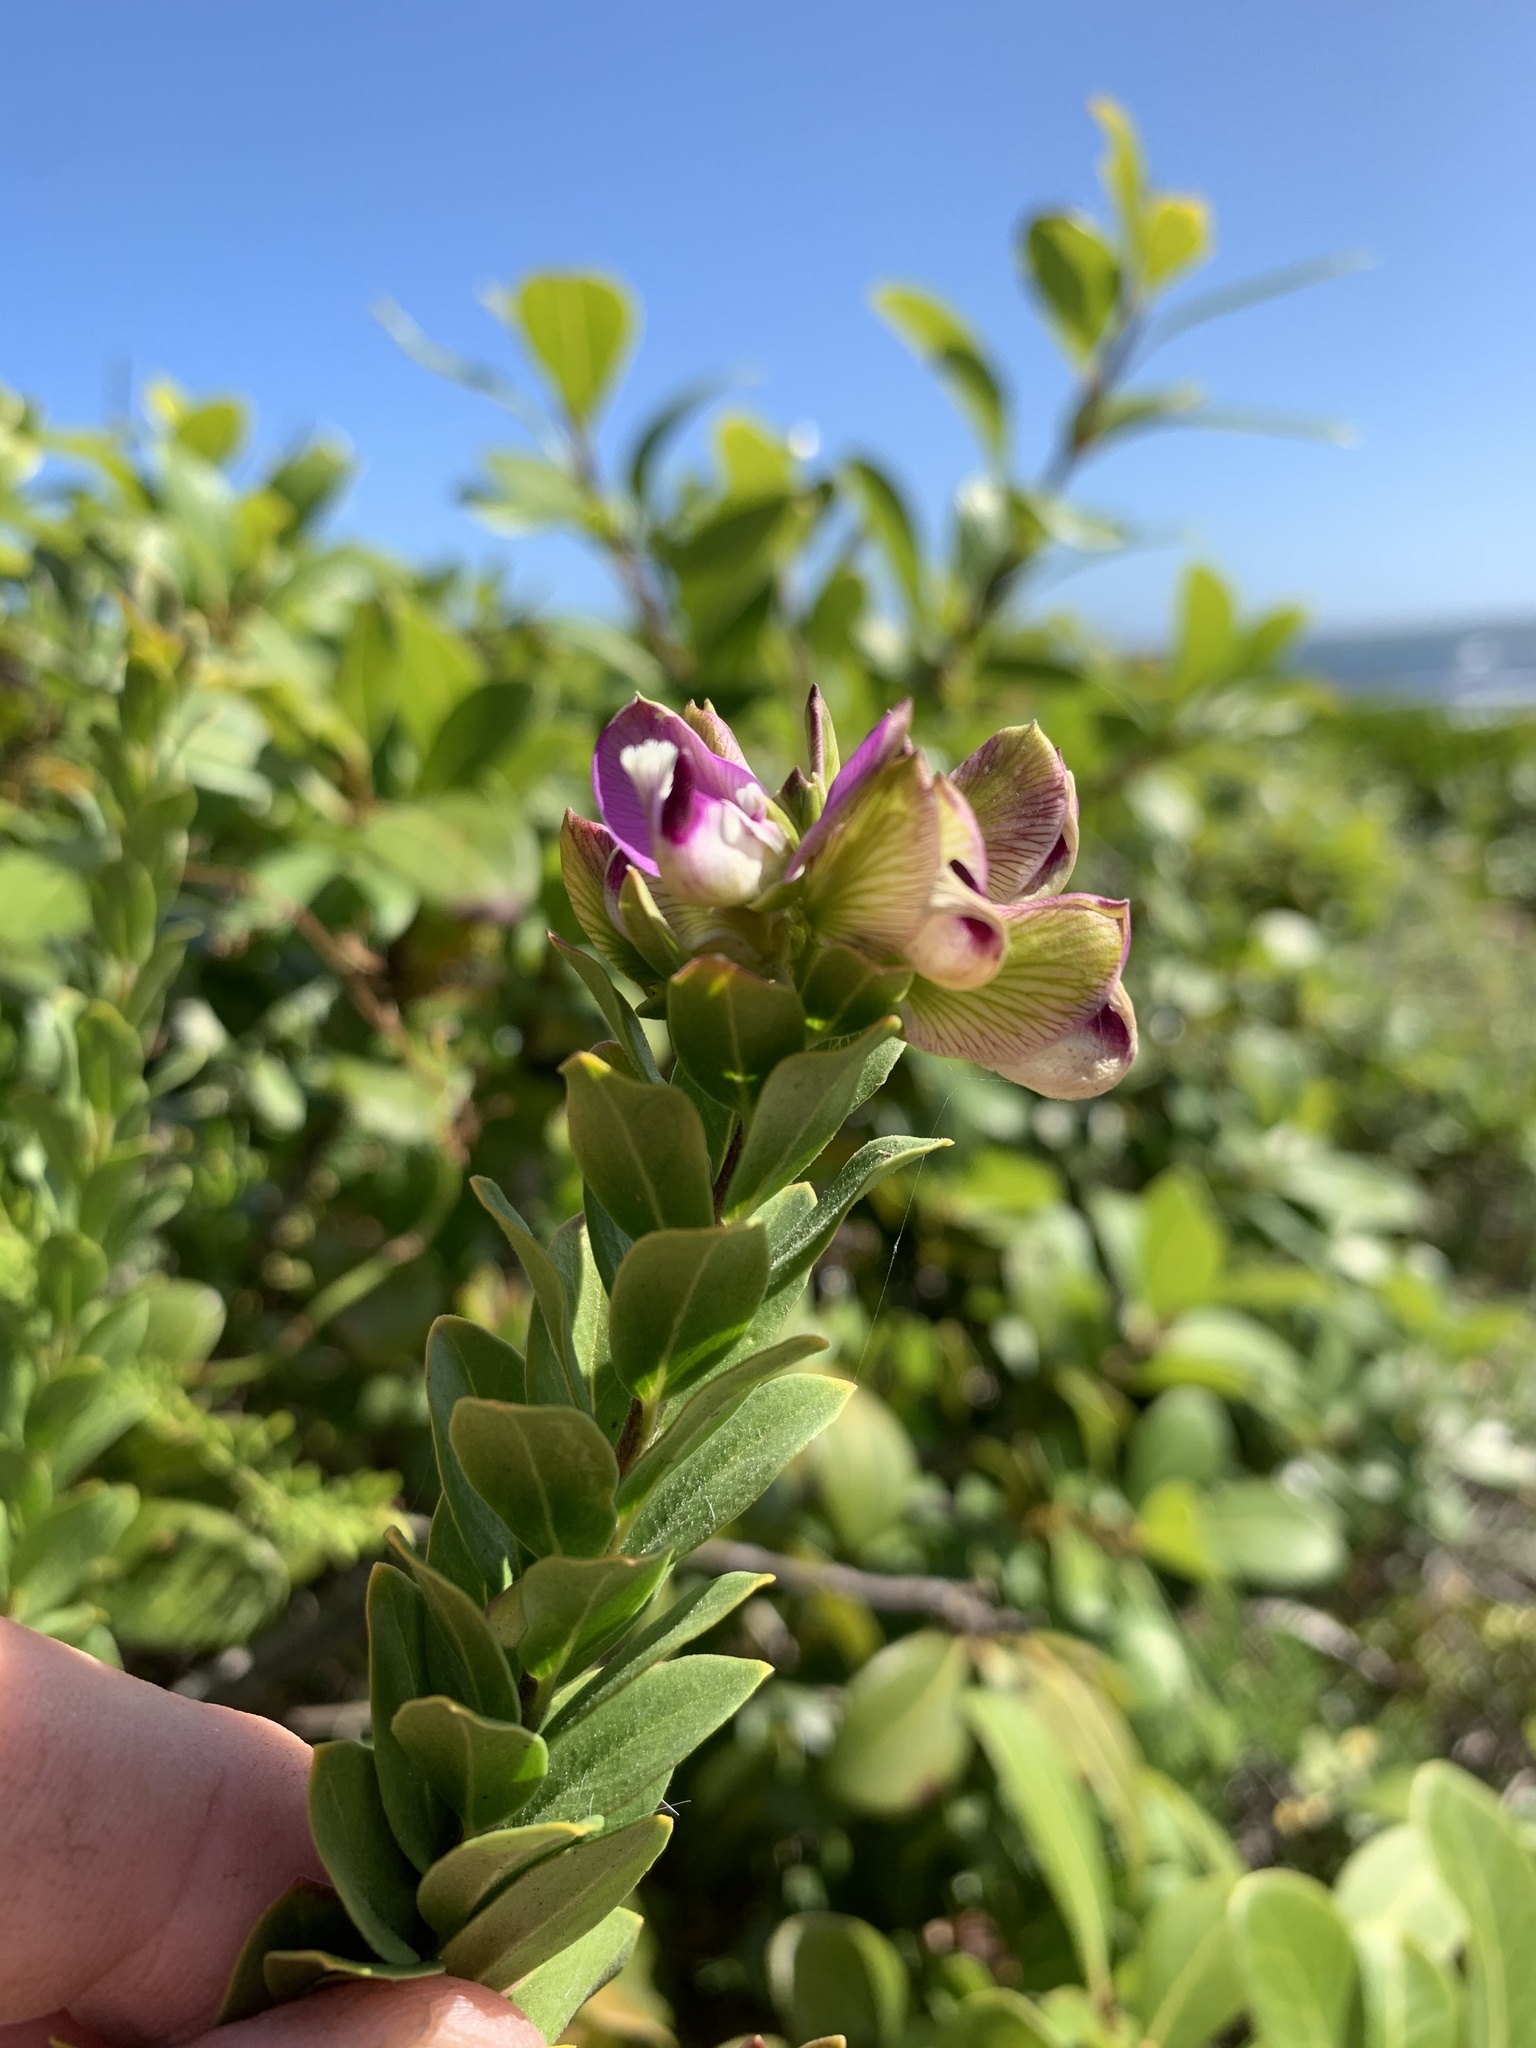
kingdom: Plantae
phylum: Tracheophyta
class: Magnoliopsida
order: Fabales
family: Polygalaceae
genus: Polygala
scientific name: Polygala myrtifolia
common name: Myrtle-leaf milkwort
